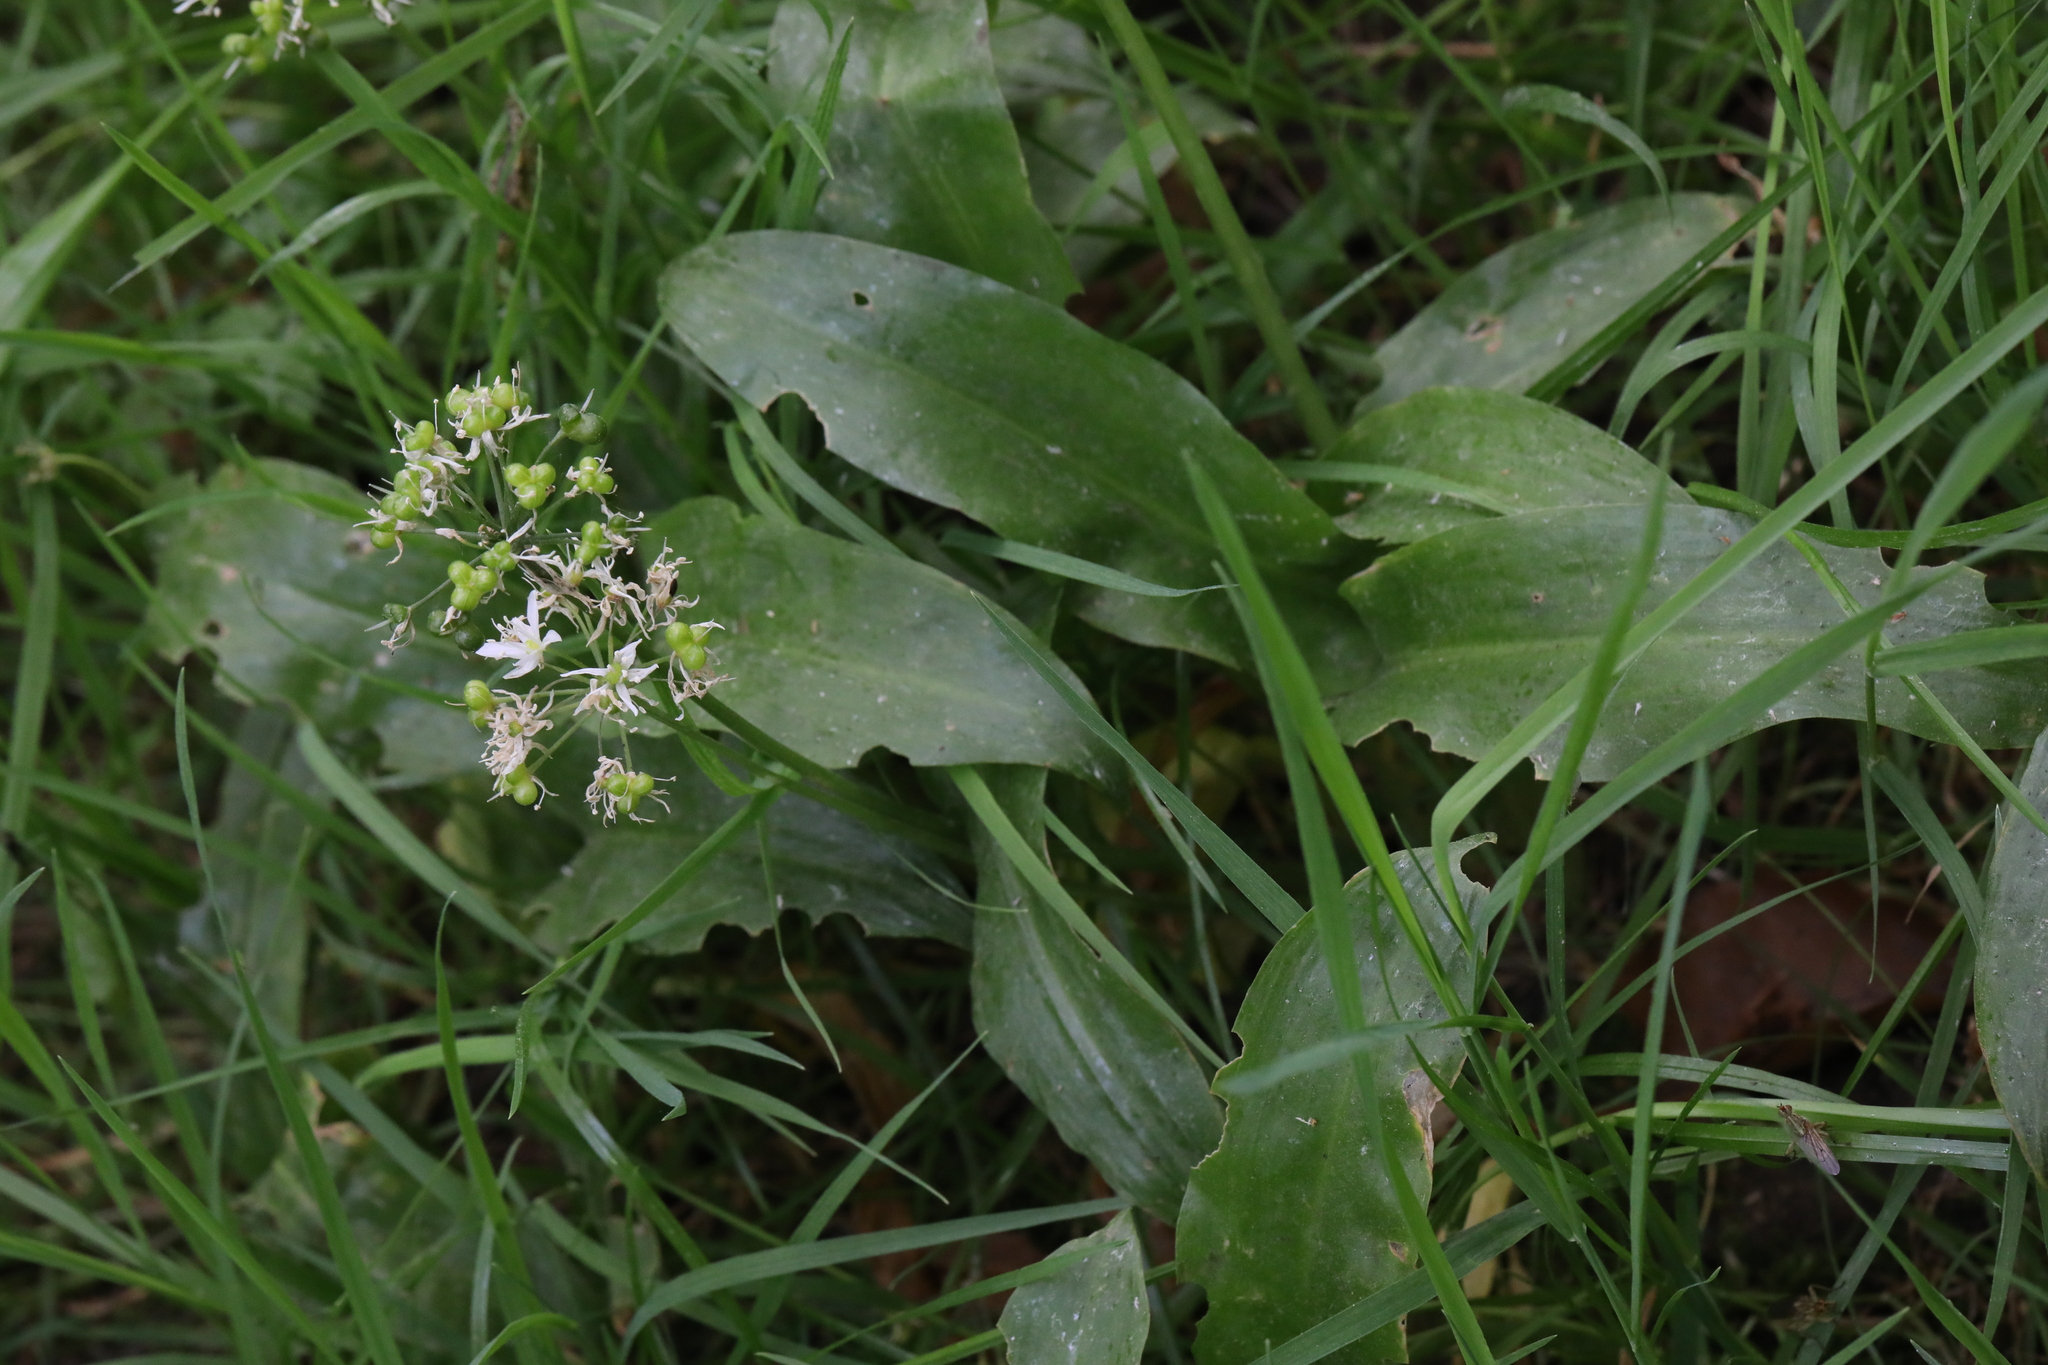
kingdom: Plantae
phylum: Tracheophyta
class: Liliopsida
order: Asparagales
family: Amaryllidaceae
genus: Allium
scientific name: Allium ursinum
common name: Ramsons
